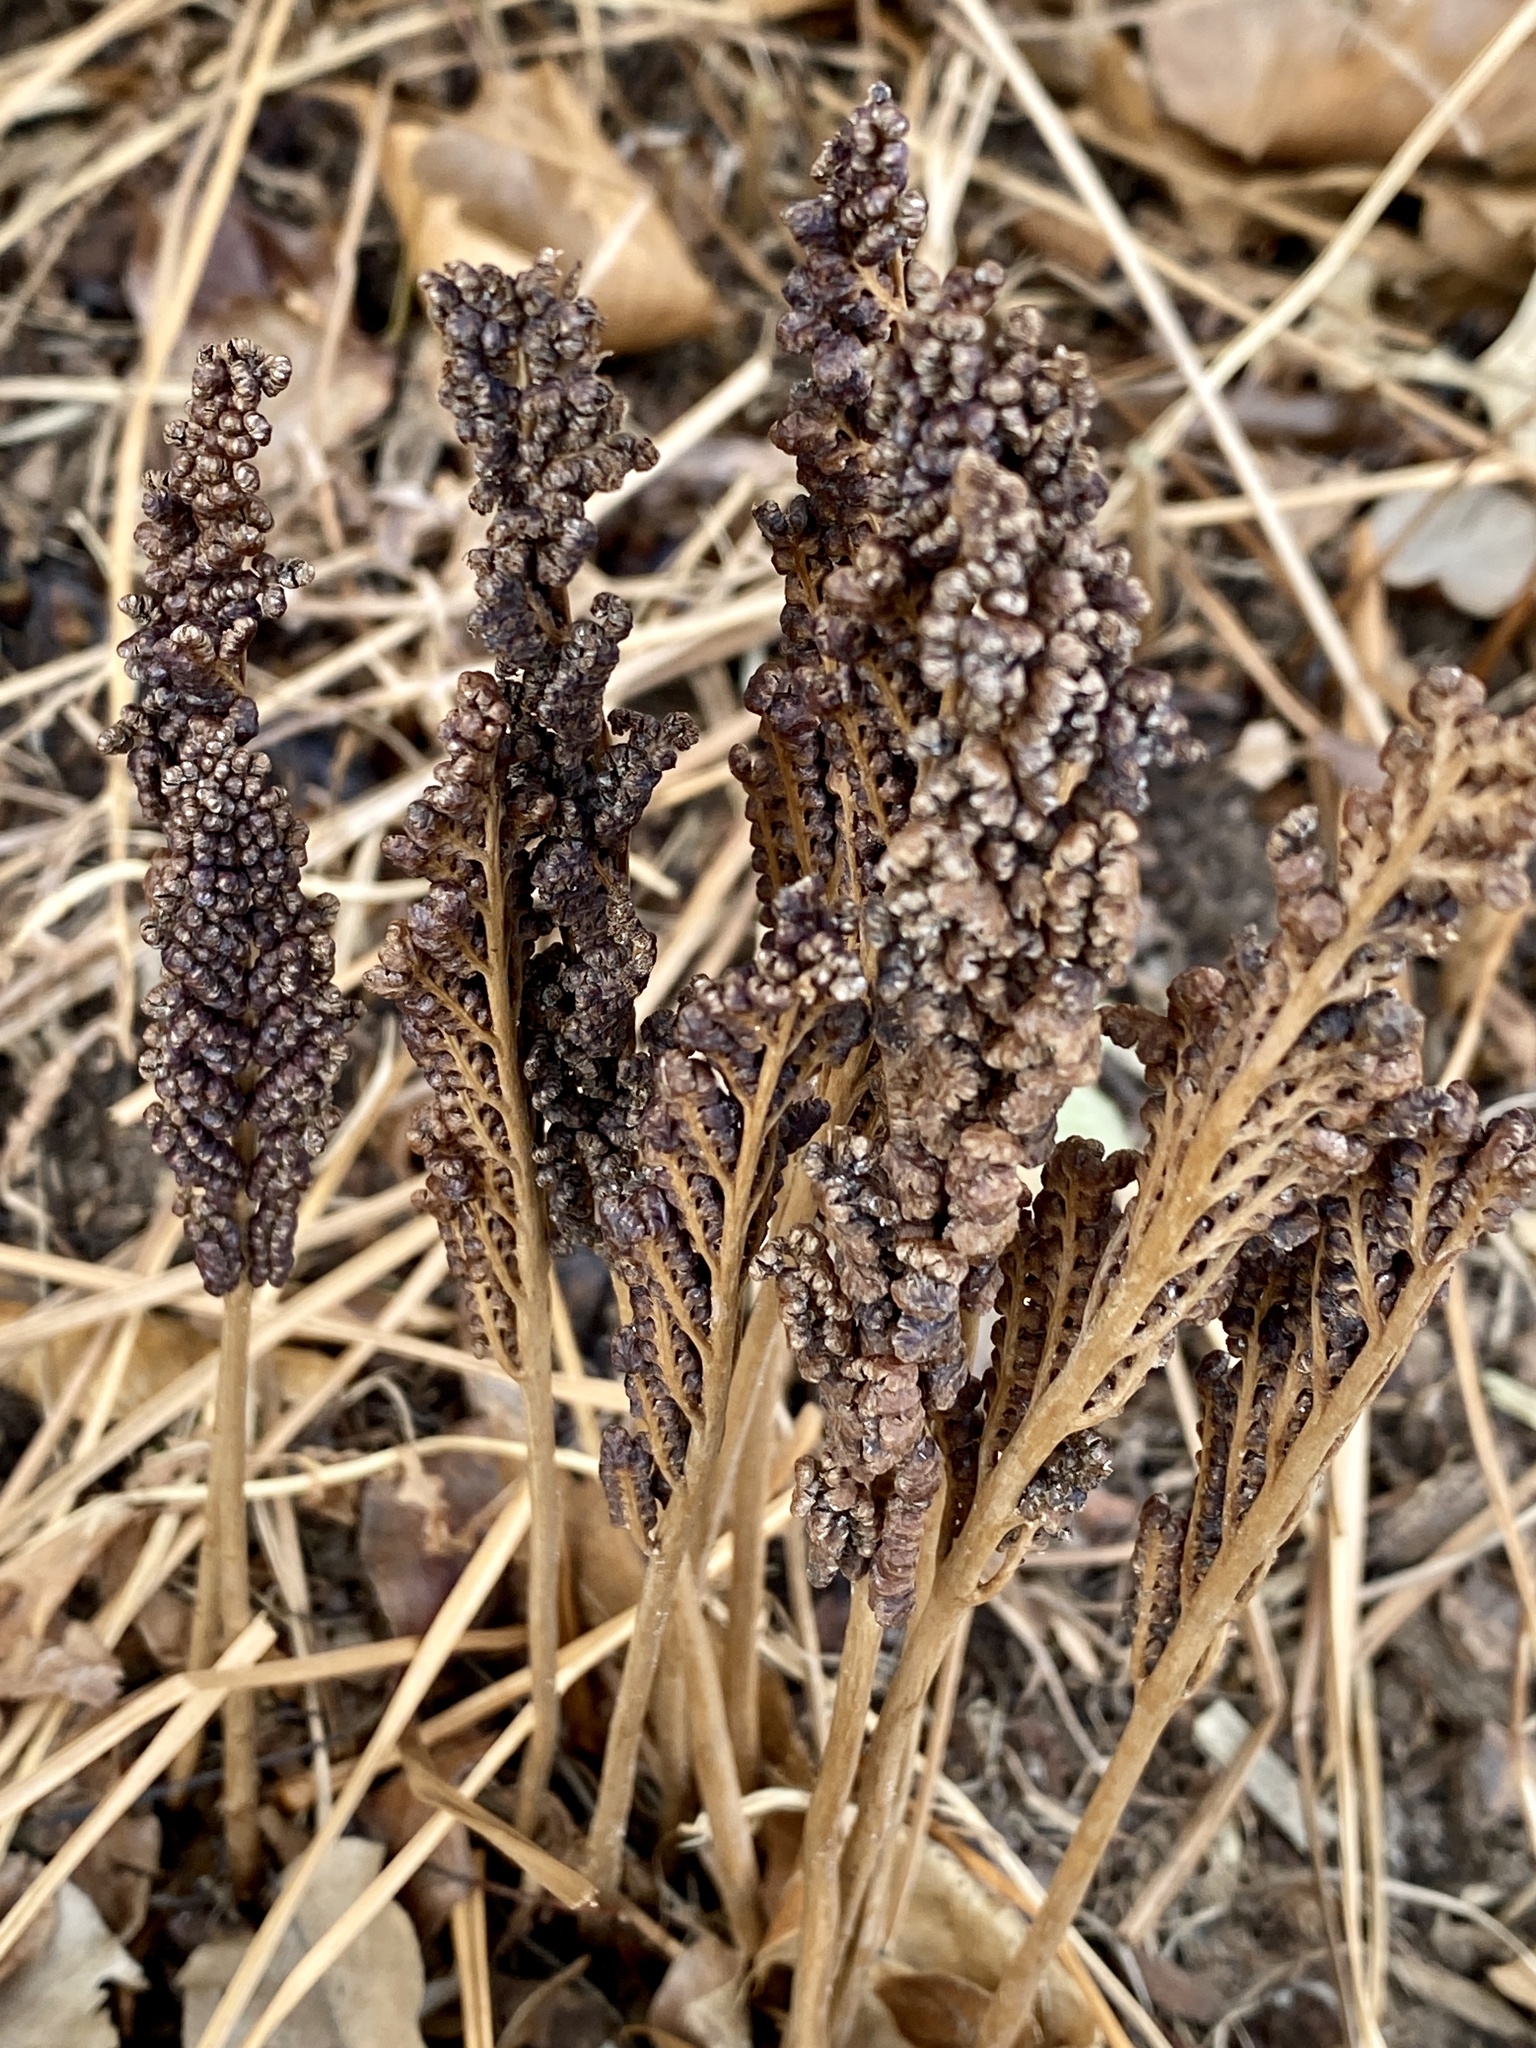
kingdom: Plantae
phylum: Tracheophyta
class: Polypodiopsida
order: Polypodiales
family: Onocleaceae
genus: Onoclea
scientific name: Onoclea sensibilis
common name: Sensitive fern
